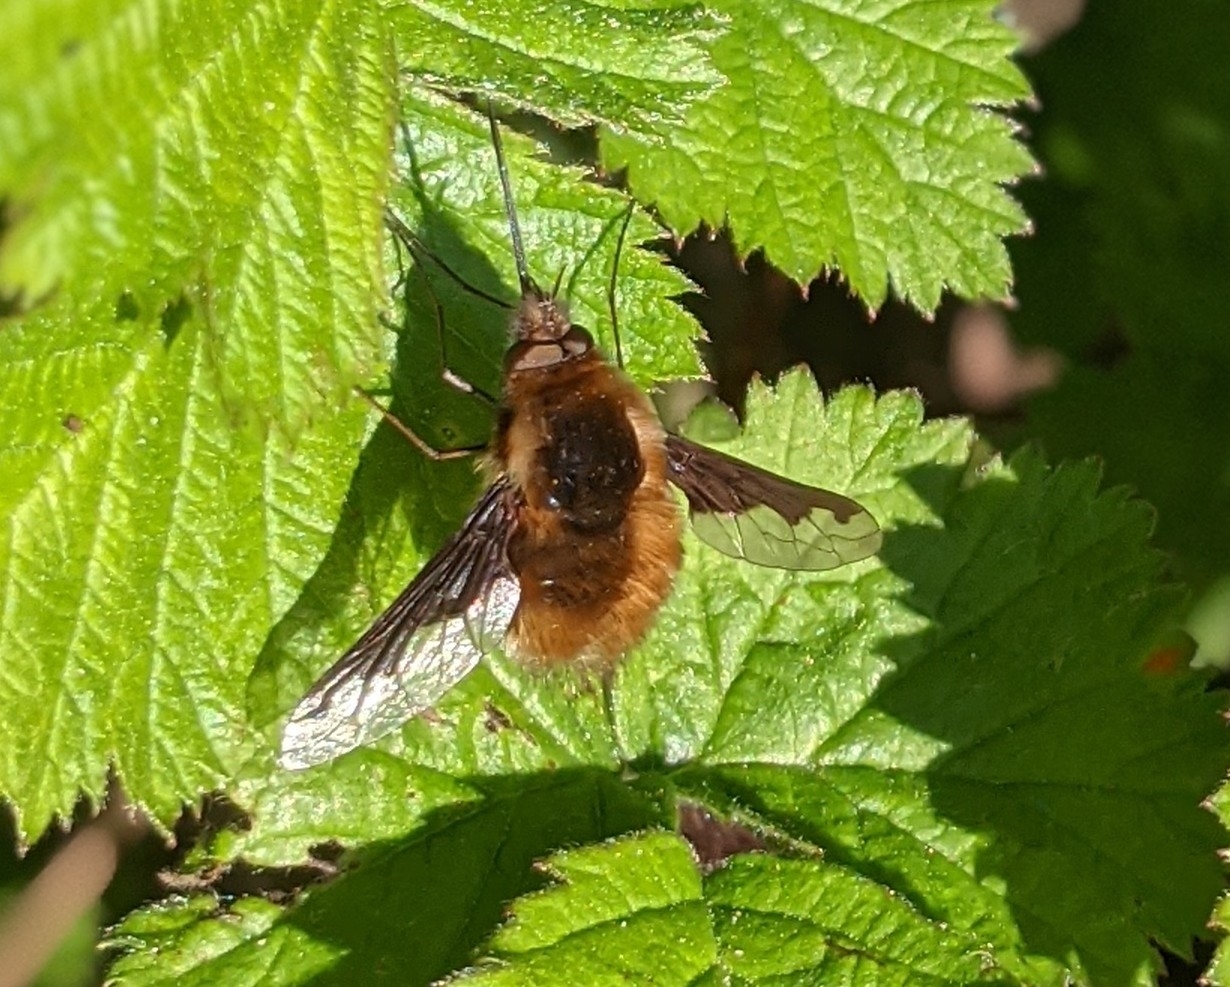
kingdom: Animalia
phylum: Arthropoda
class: Insecta
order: Diptera
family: Bombyliidae
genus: Bombylius
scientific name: Bombylius major
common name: Bee fly
